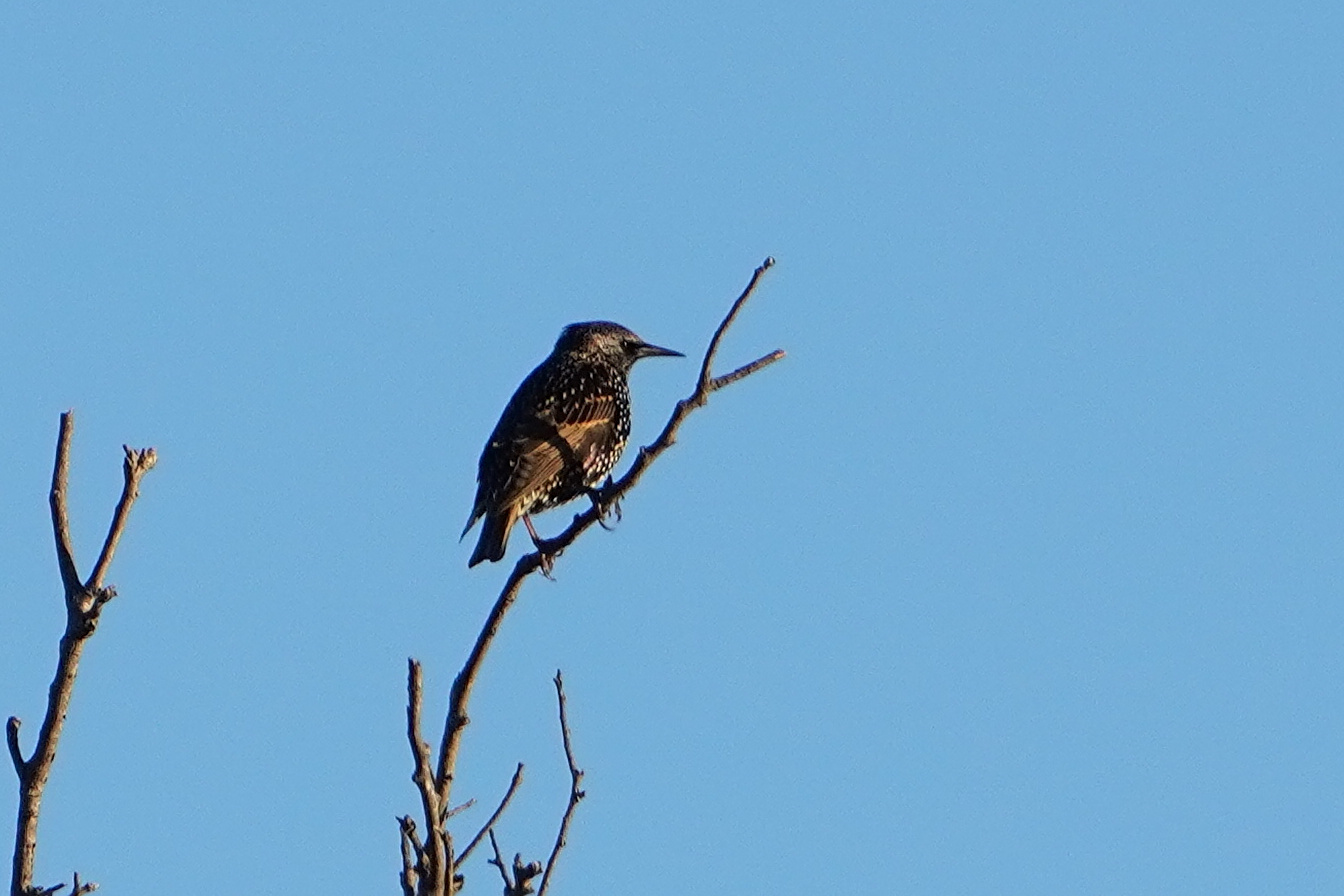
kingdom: Animalia
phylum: Chordata
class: Aves
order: Passeriformes
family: Sturnidae
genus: Sturnus
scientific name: Sturnus vulgaris
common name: Common starling
